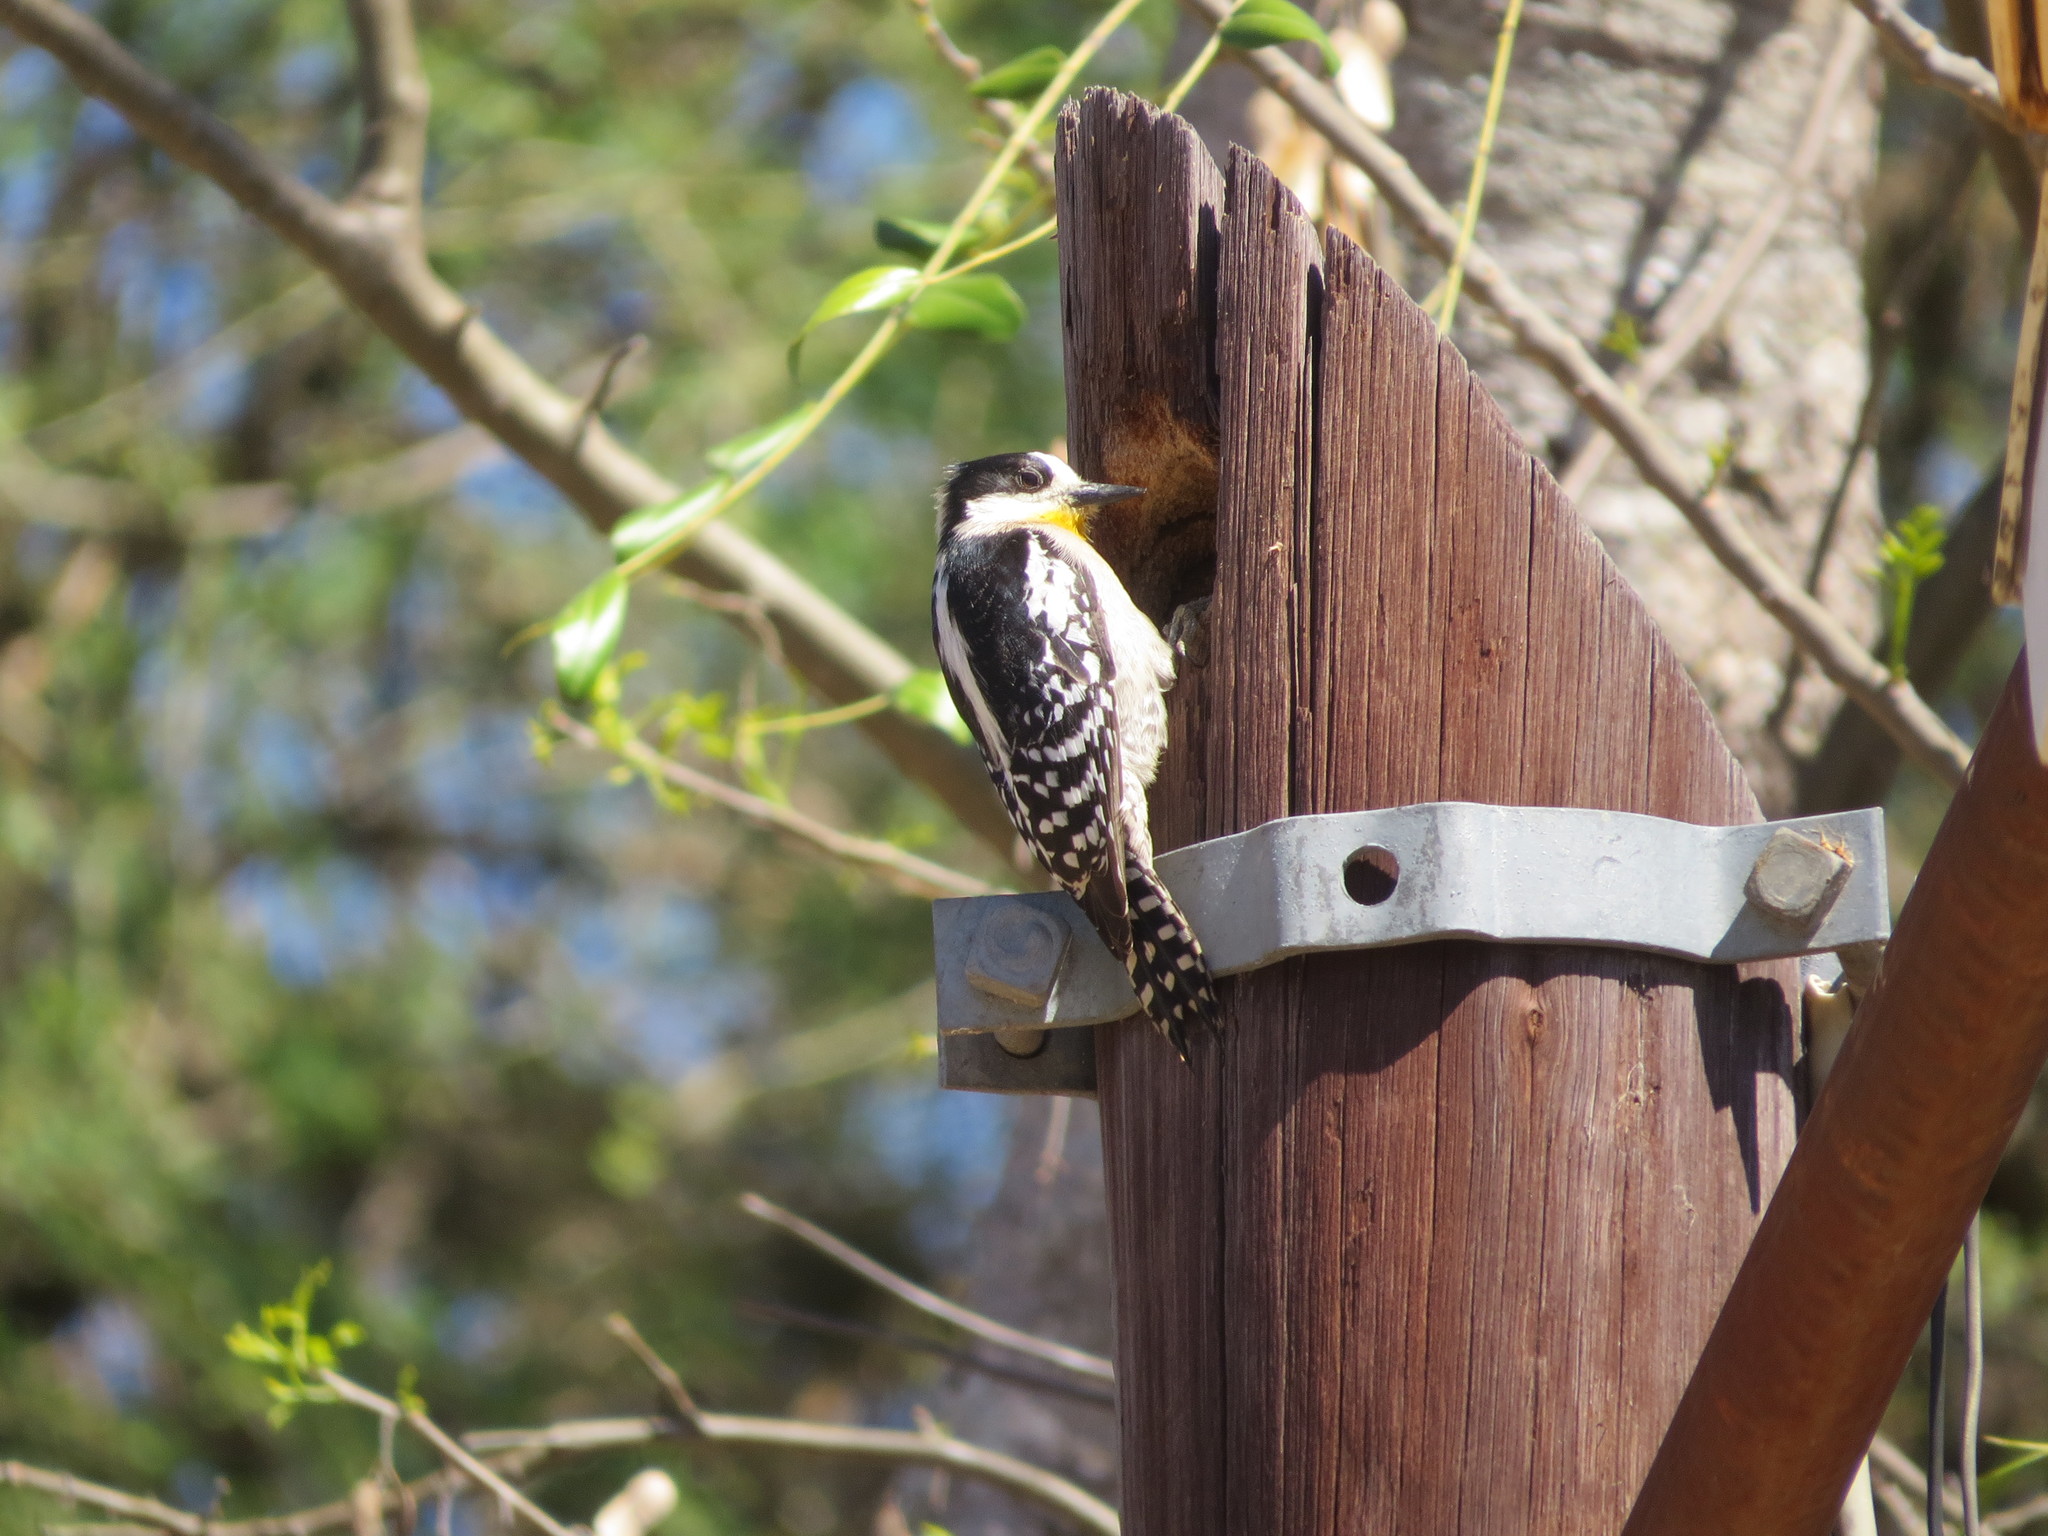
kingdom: Animalia
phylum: Chordata
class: Aves
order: Piciformes
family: Picidae
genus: Melanerpes
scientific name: Melanerpes cactorum
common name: White-fronted woodpecker
